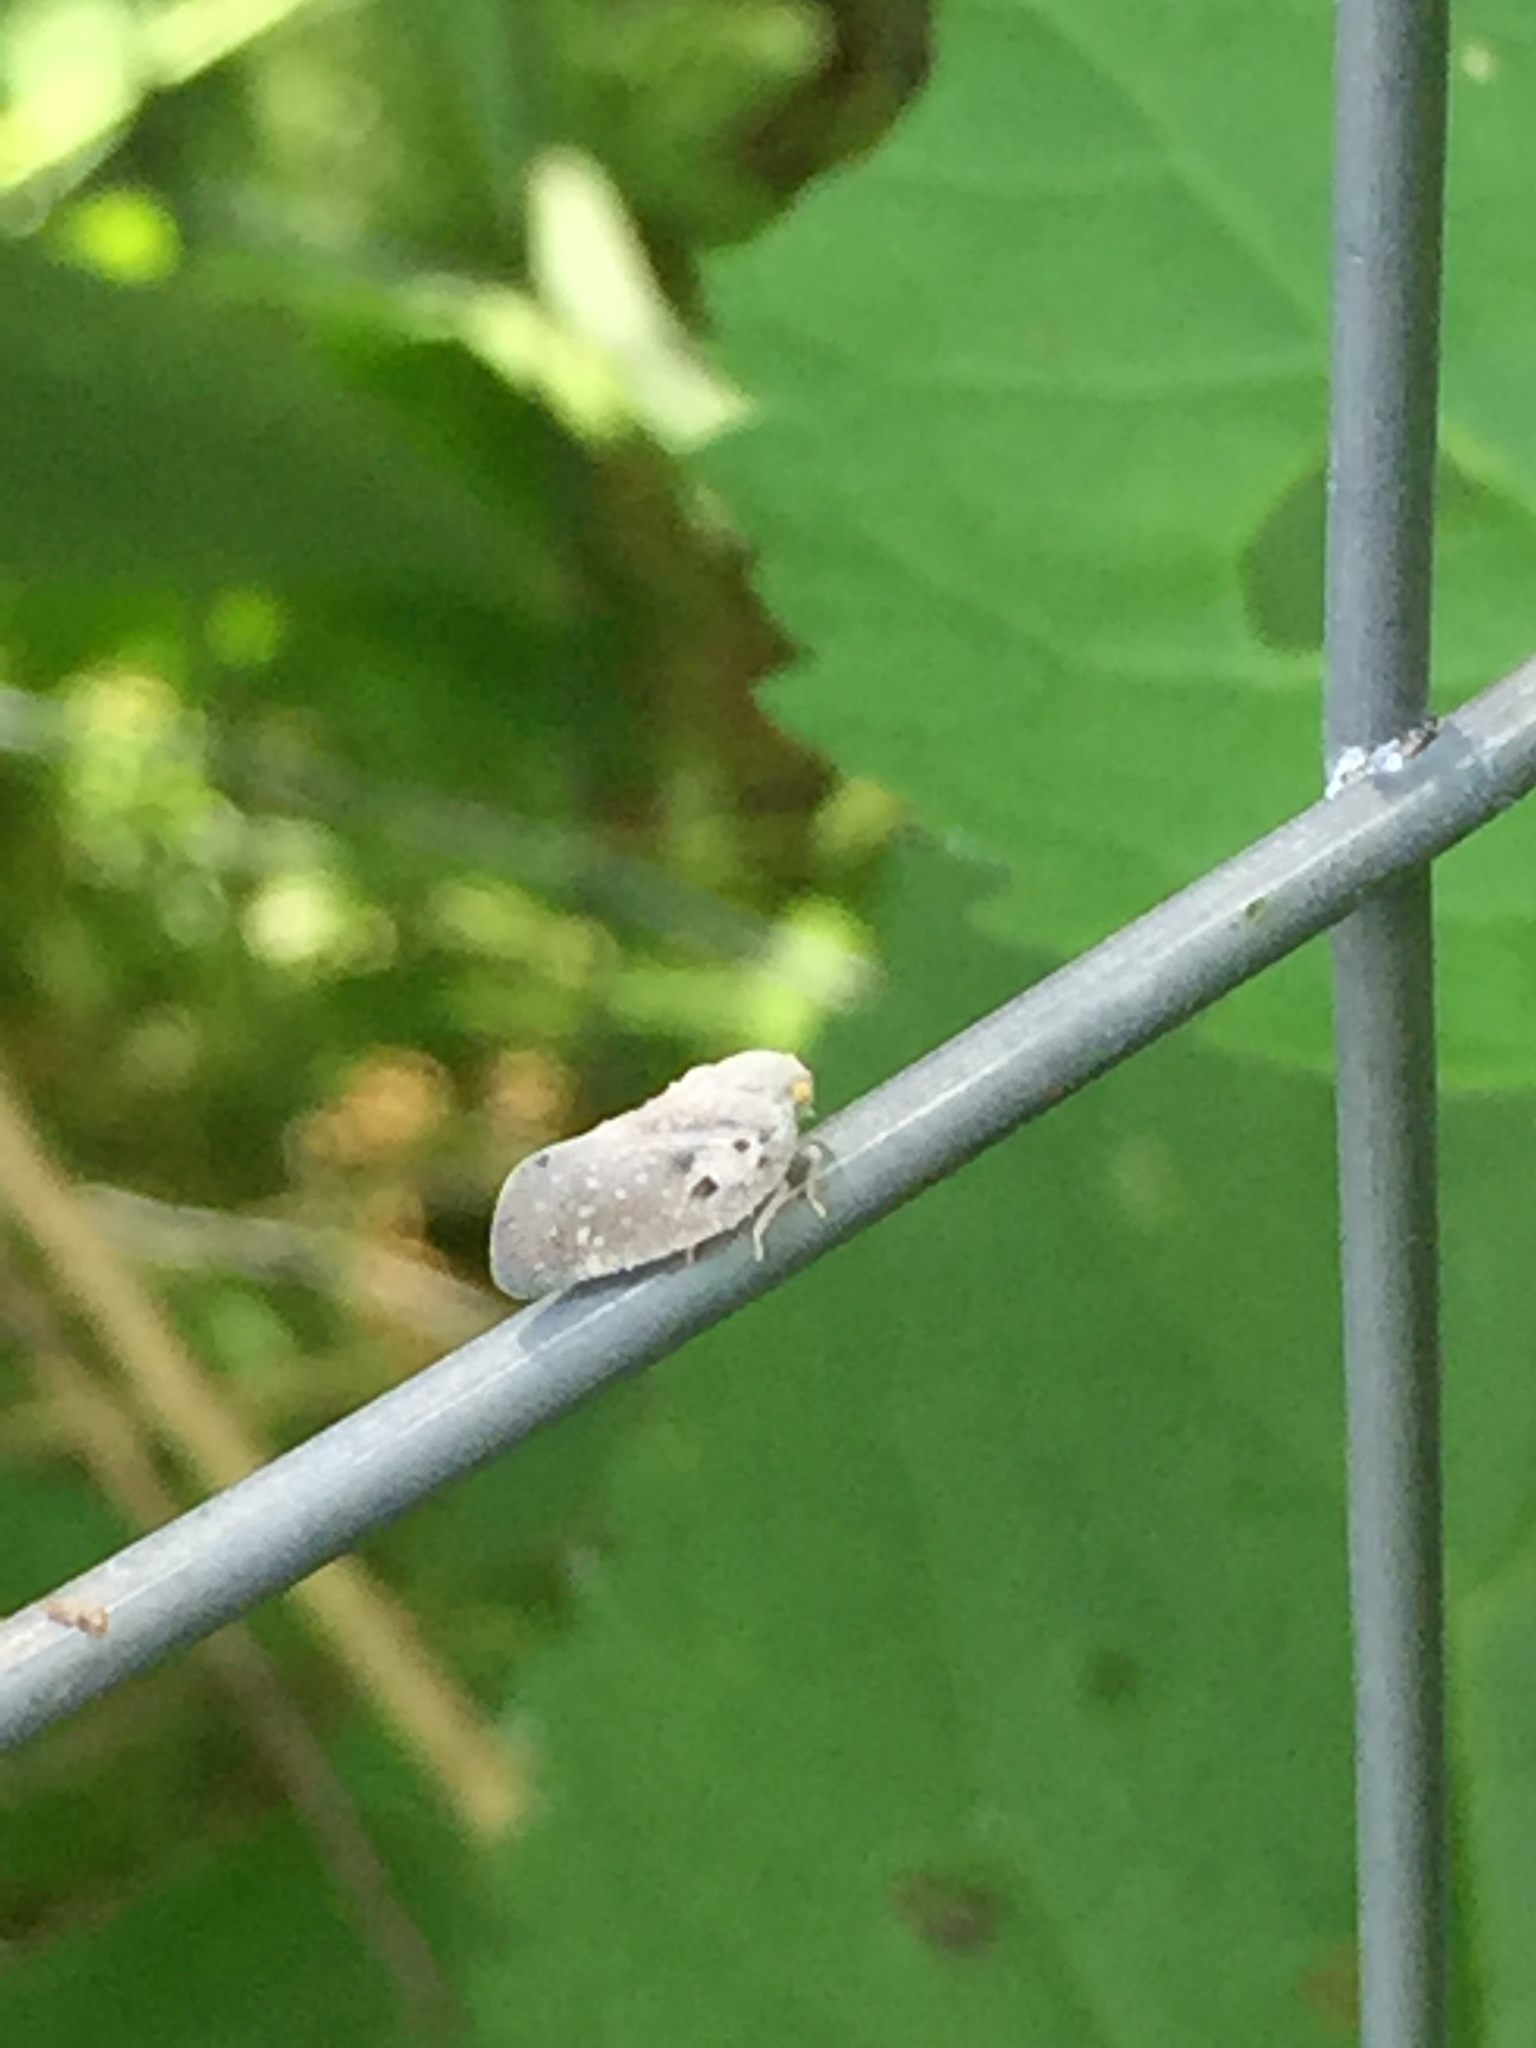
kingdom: Animalia
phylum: Arthropoda
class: Insecta
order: Hemiptera
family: Flatidae
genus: Metcalfa
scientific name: Metcalfa pruinosa
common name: Citrus flatid planthopper
